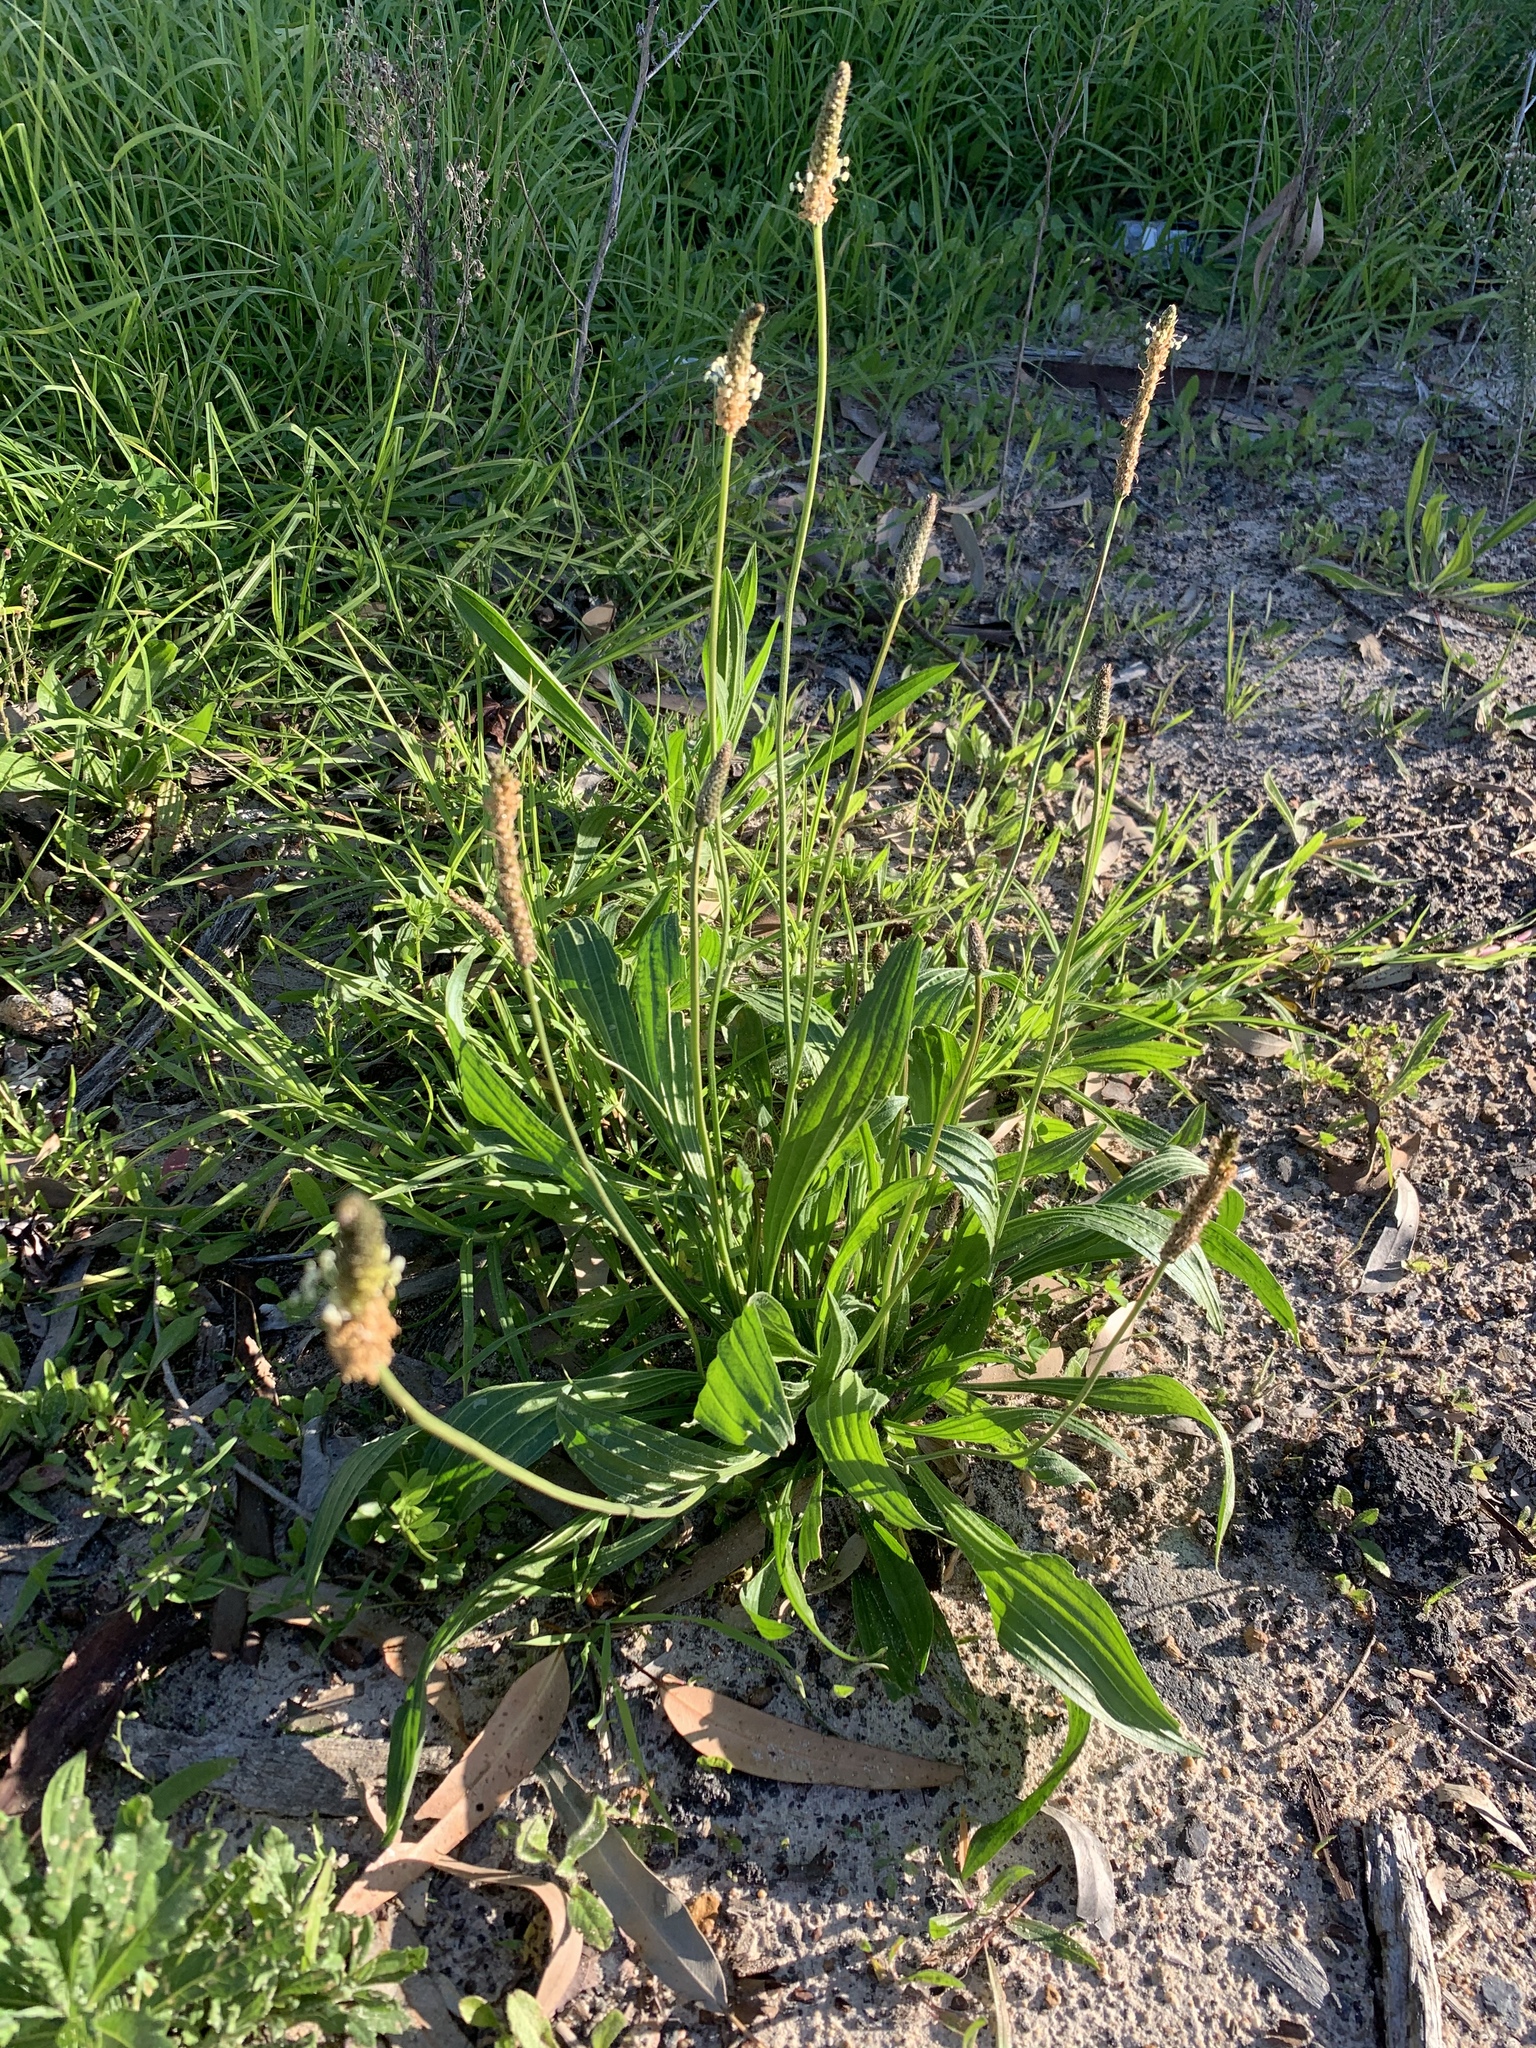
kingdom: Plantae
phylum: Tracheophyta
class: Magnoliopsida
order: Lamiales
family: Plantaginaceae
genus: Plantago
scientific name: Plantago lanceolata
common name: Ribwort plantain
